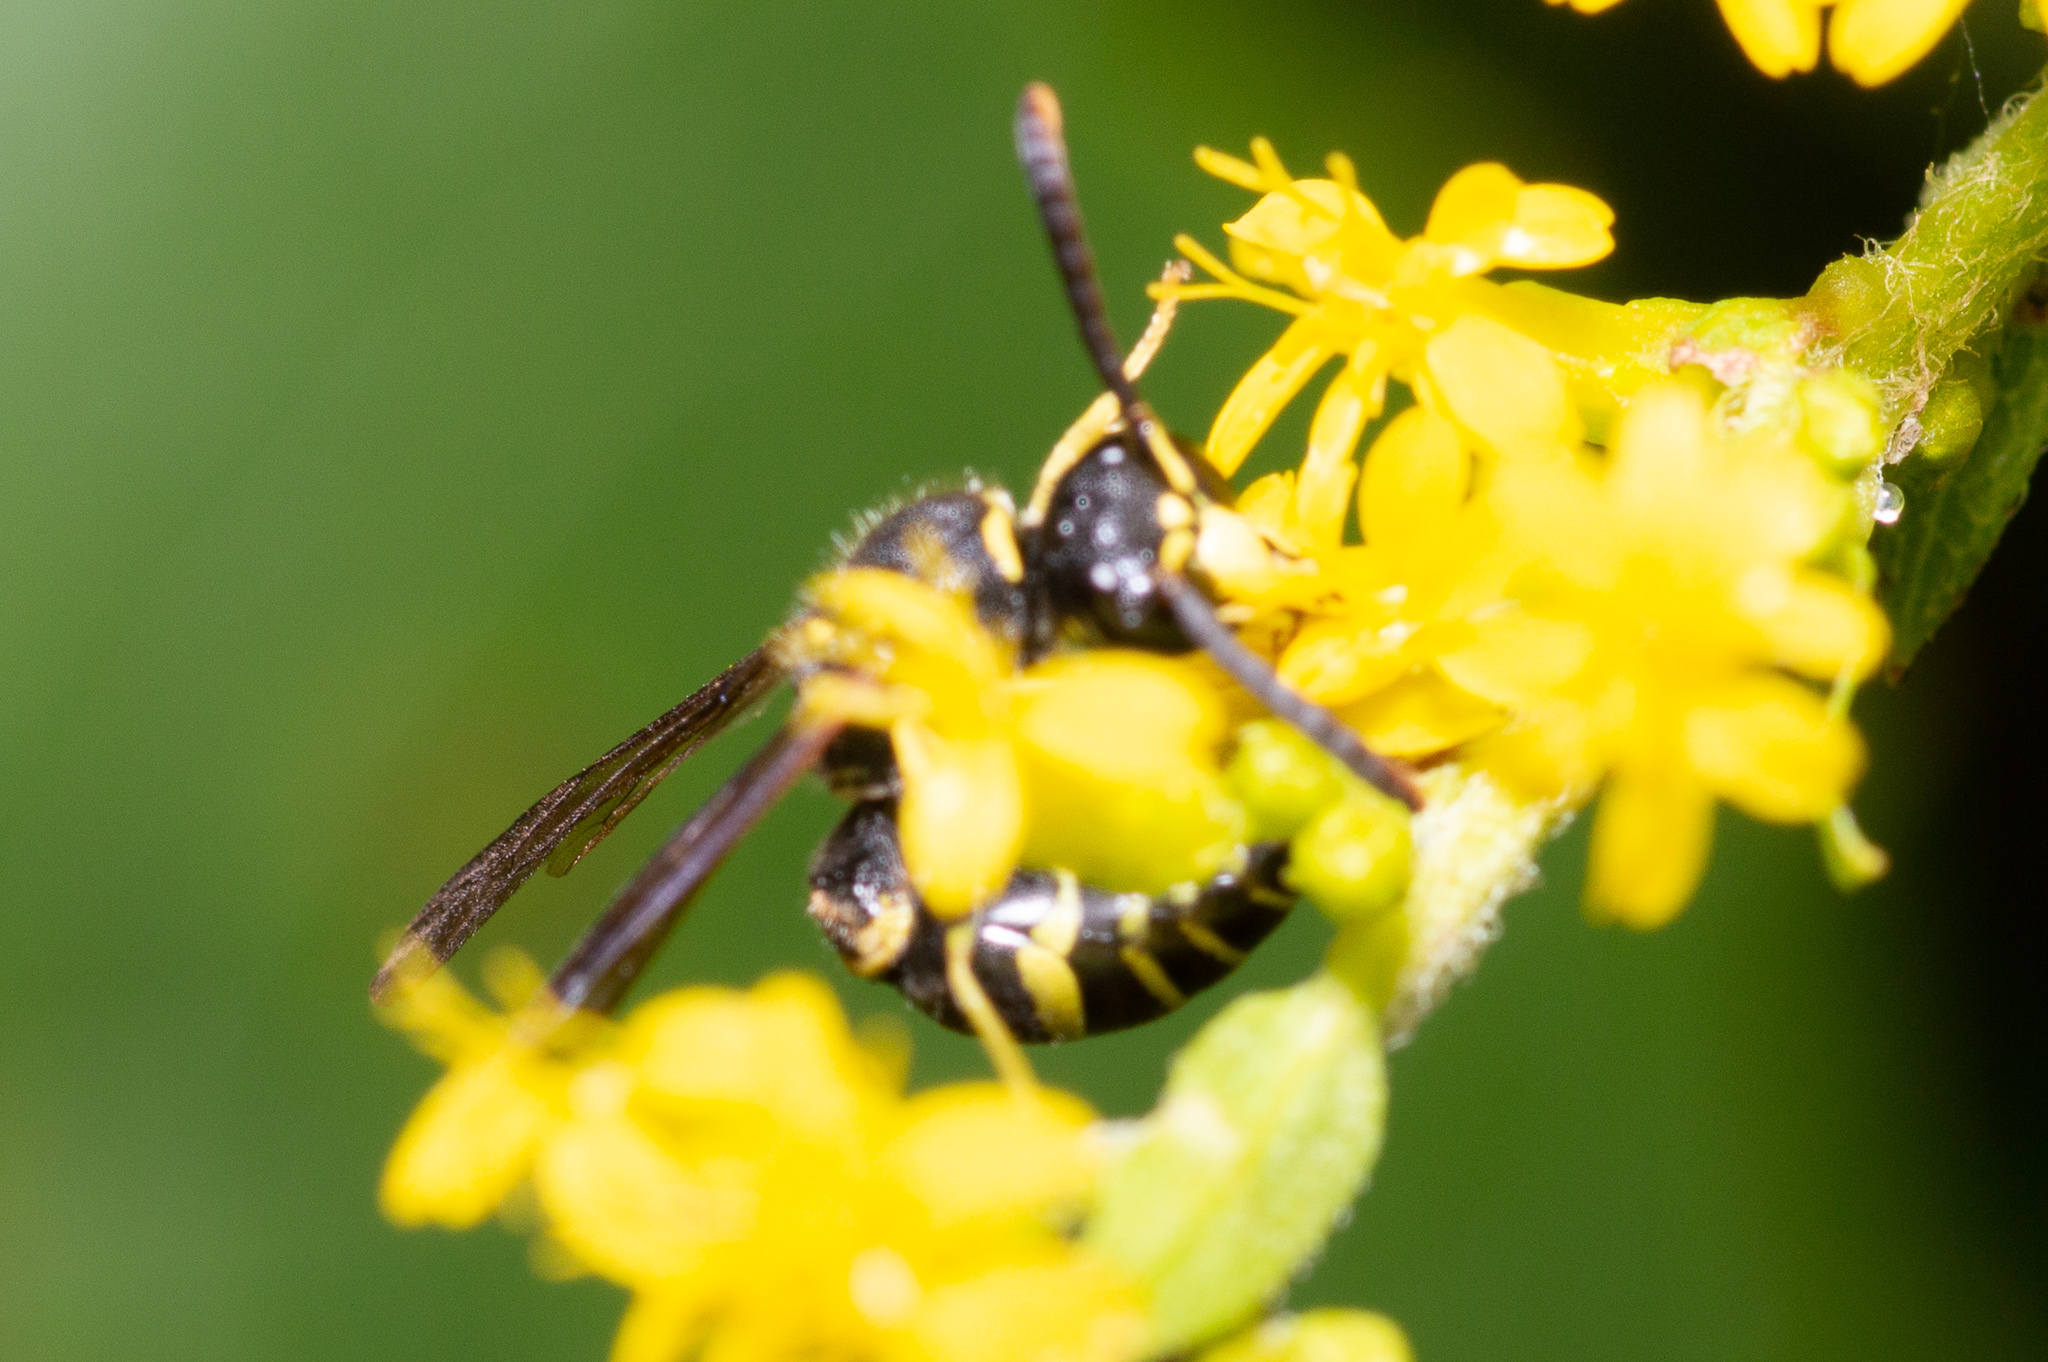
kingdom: Animalia
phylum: Arthropoda
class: Insecta
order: Hymenoptera
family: Vespidae
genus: Ancistrocerus
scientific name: Ancistrocerus adiabatus
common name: Bramble mason wasp
